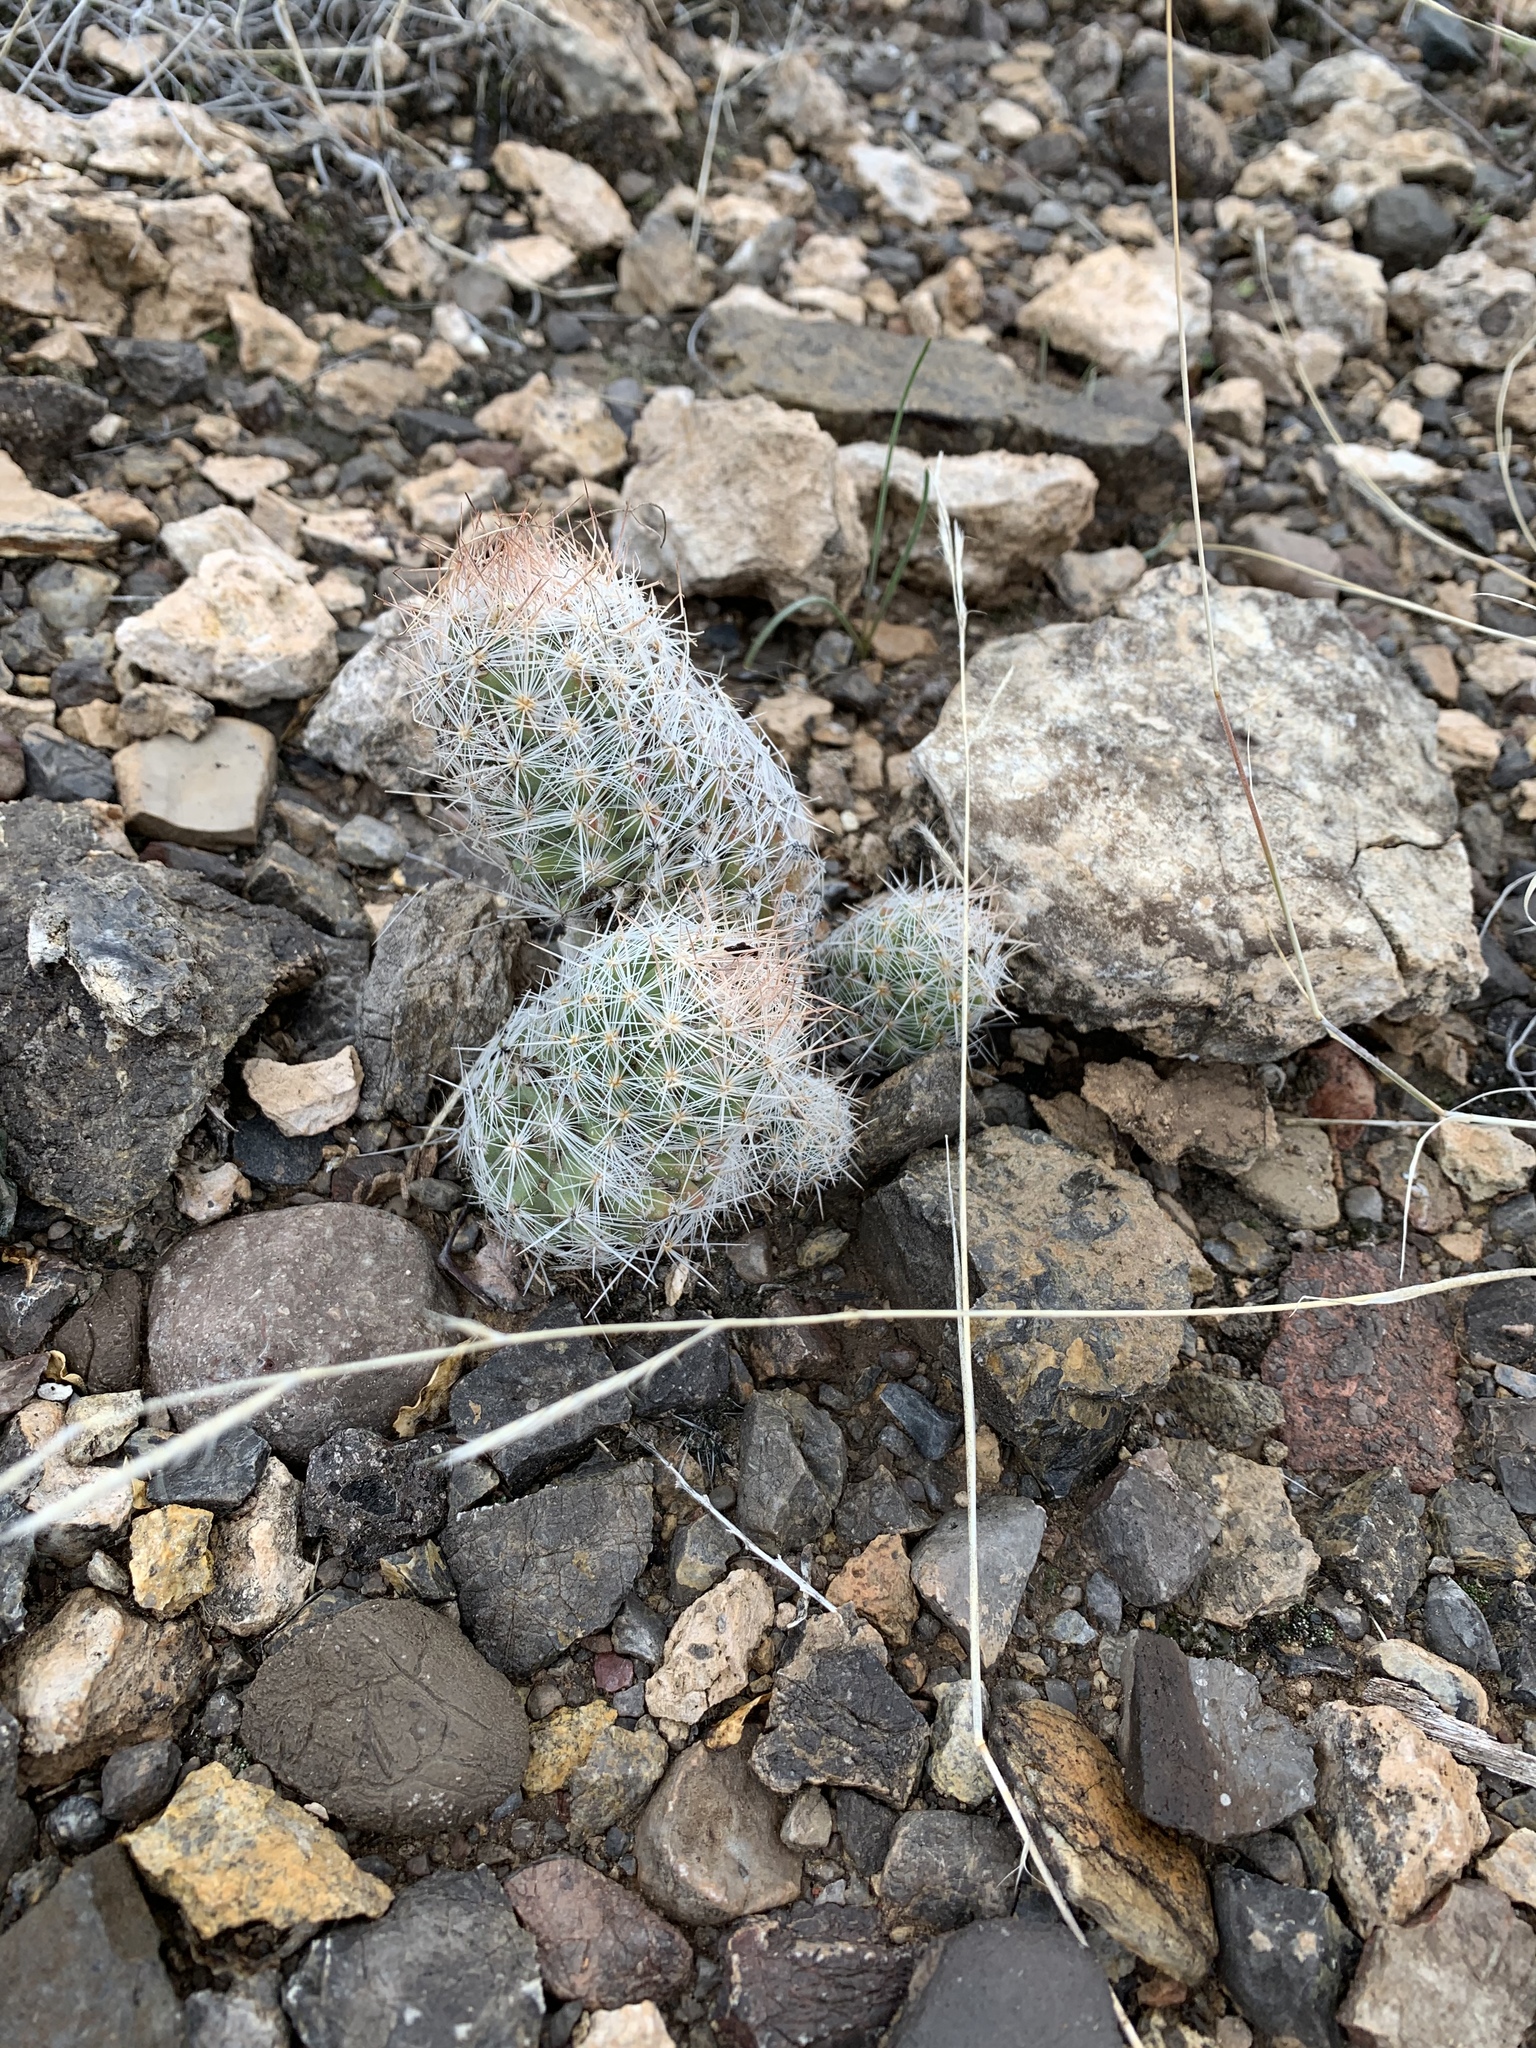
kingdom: Plantae
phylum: Tracheophyta
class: Magnoliopsida
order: Caryophyllales
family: Cactaceae
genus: Pelecyphora
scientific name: Pelecyphora tuberculosa
